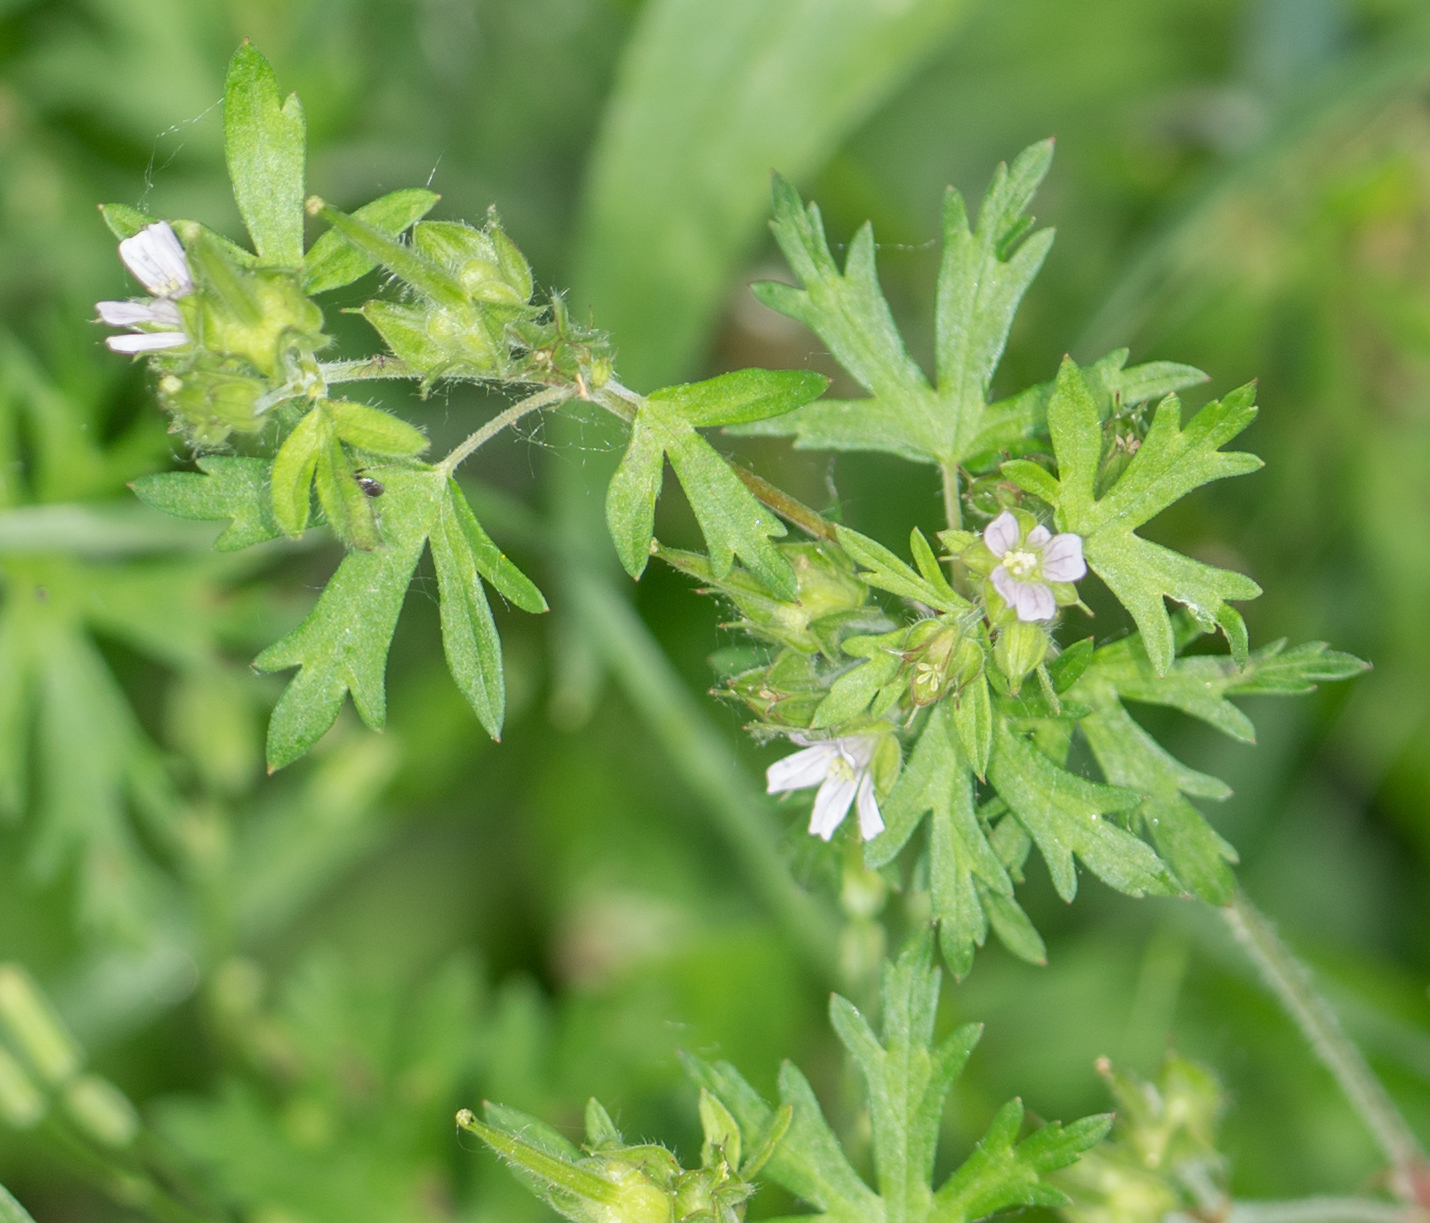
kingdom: Plantae
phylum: Tracheophyta
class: Magnoliopsida
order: Geraniales
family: Geraniaceae
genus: Geranium
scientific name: Geranium carolinianum
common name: Carolina crane's-bill
